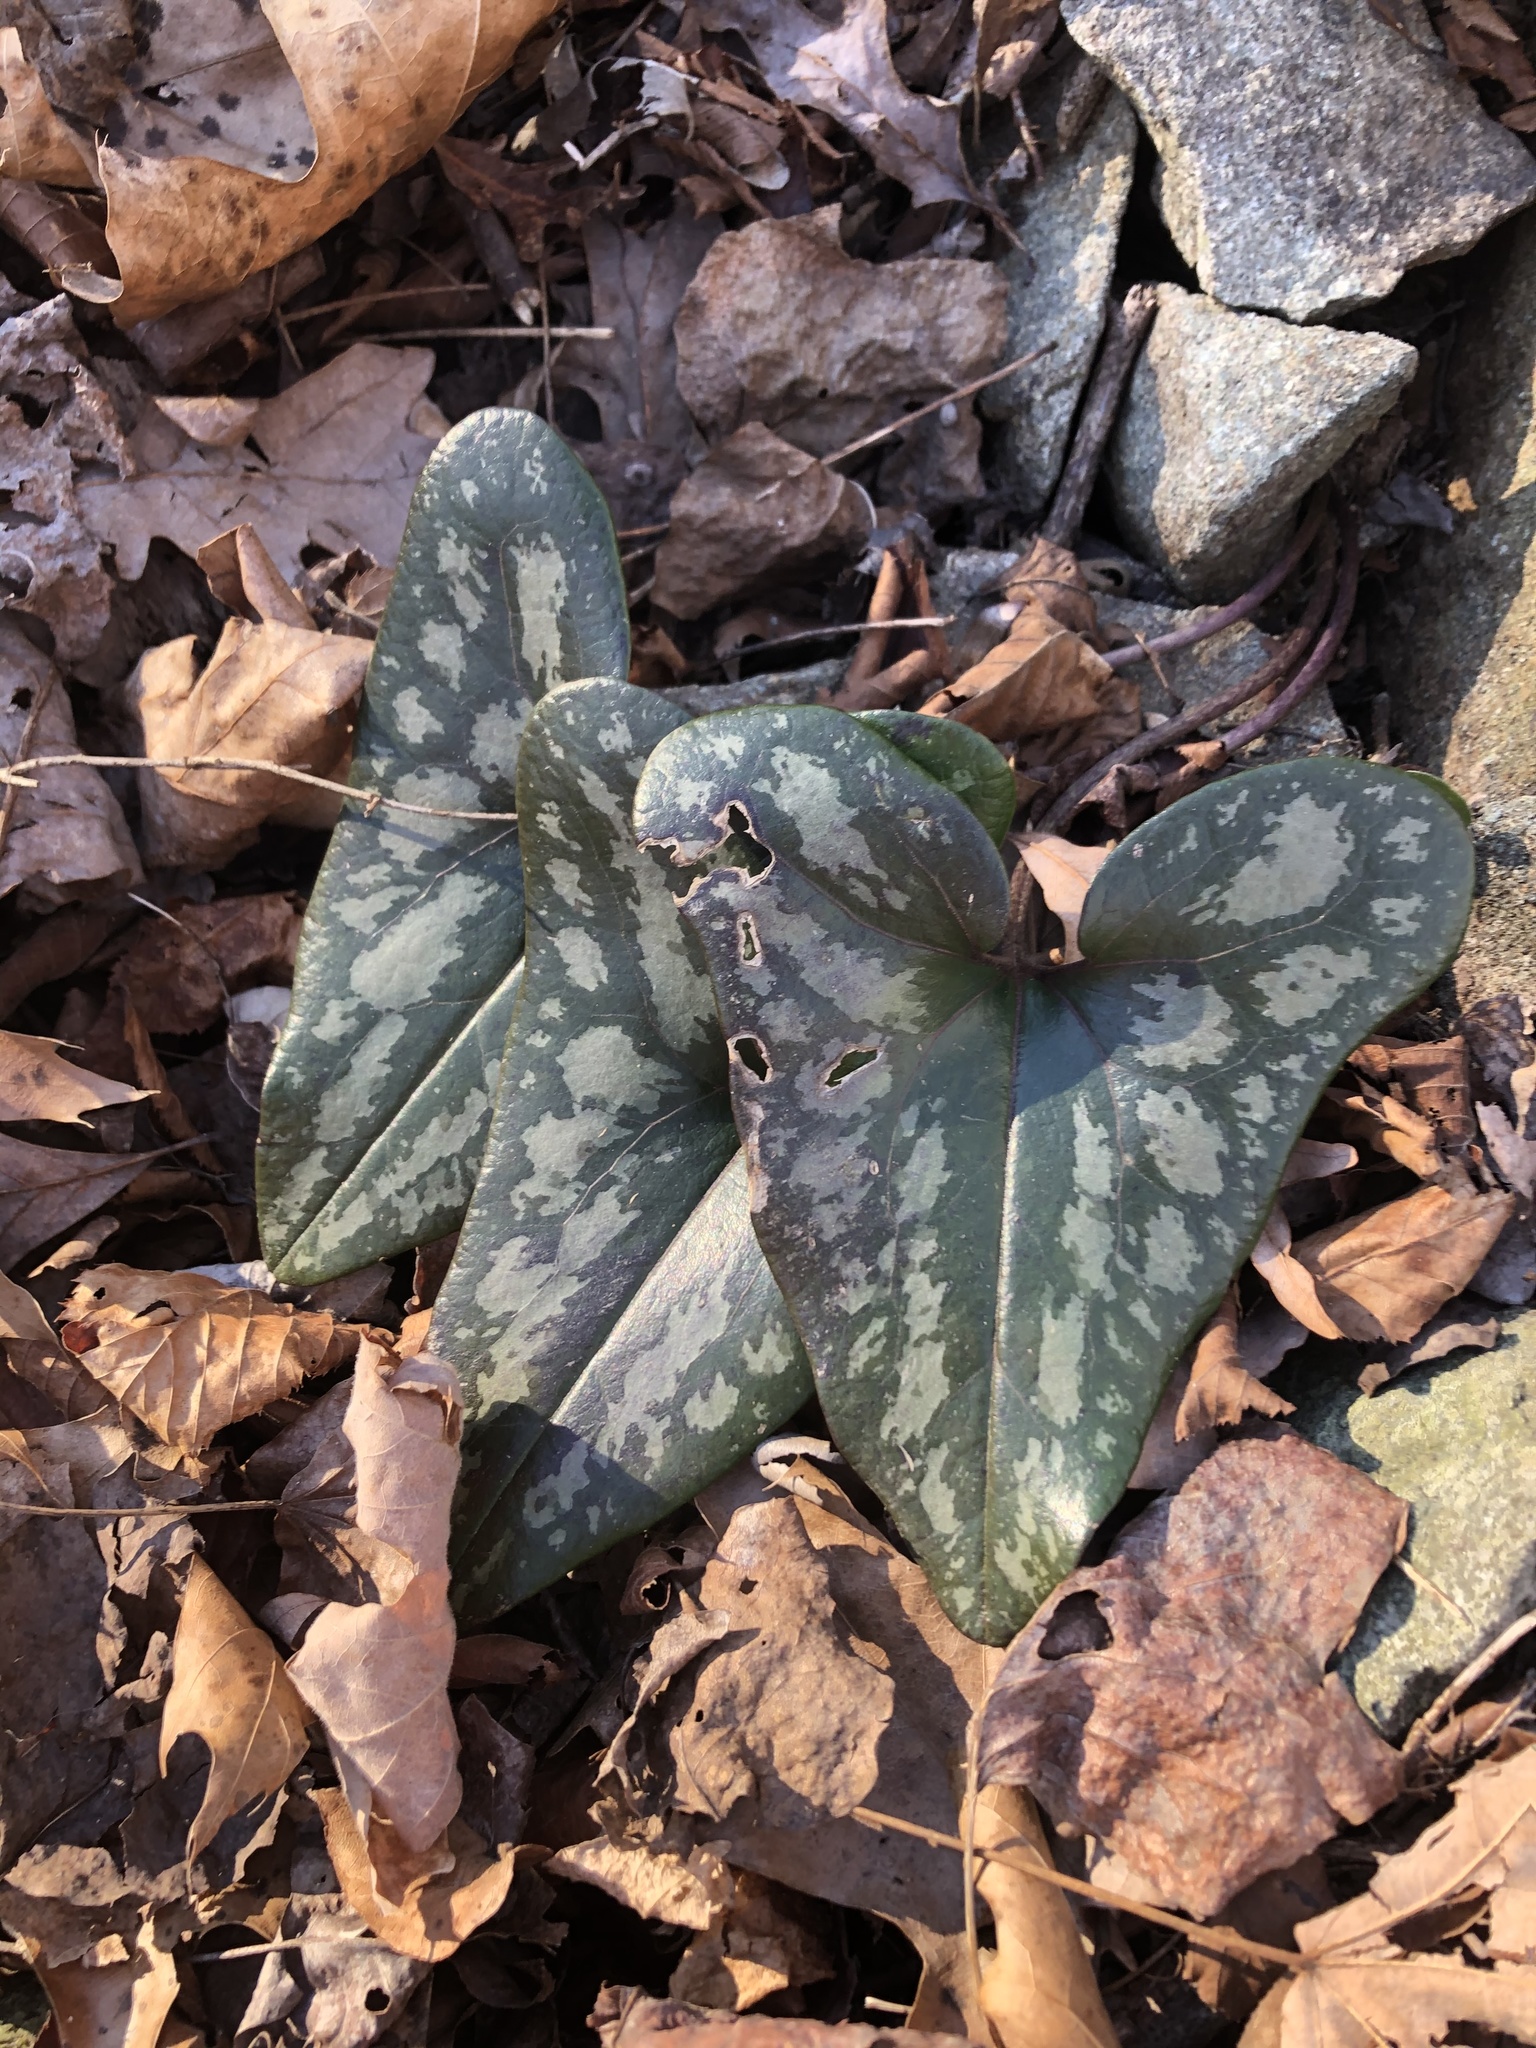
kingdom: Plantae
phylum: Tracheophyta
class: Magnoliopsida
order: Piperales
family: Aristolochiaceae
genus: Hexastylis
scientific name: Hexastylis arifolia
